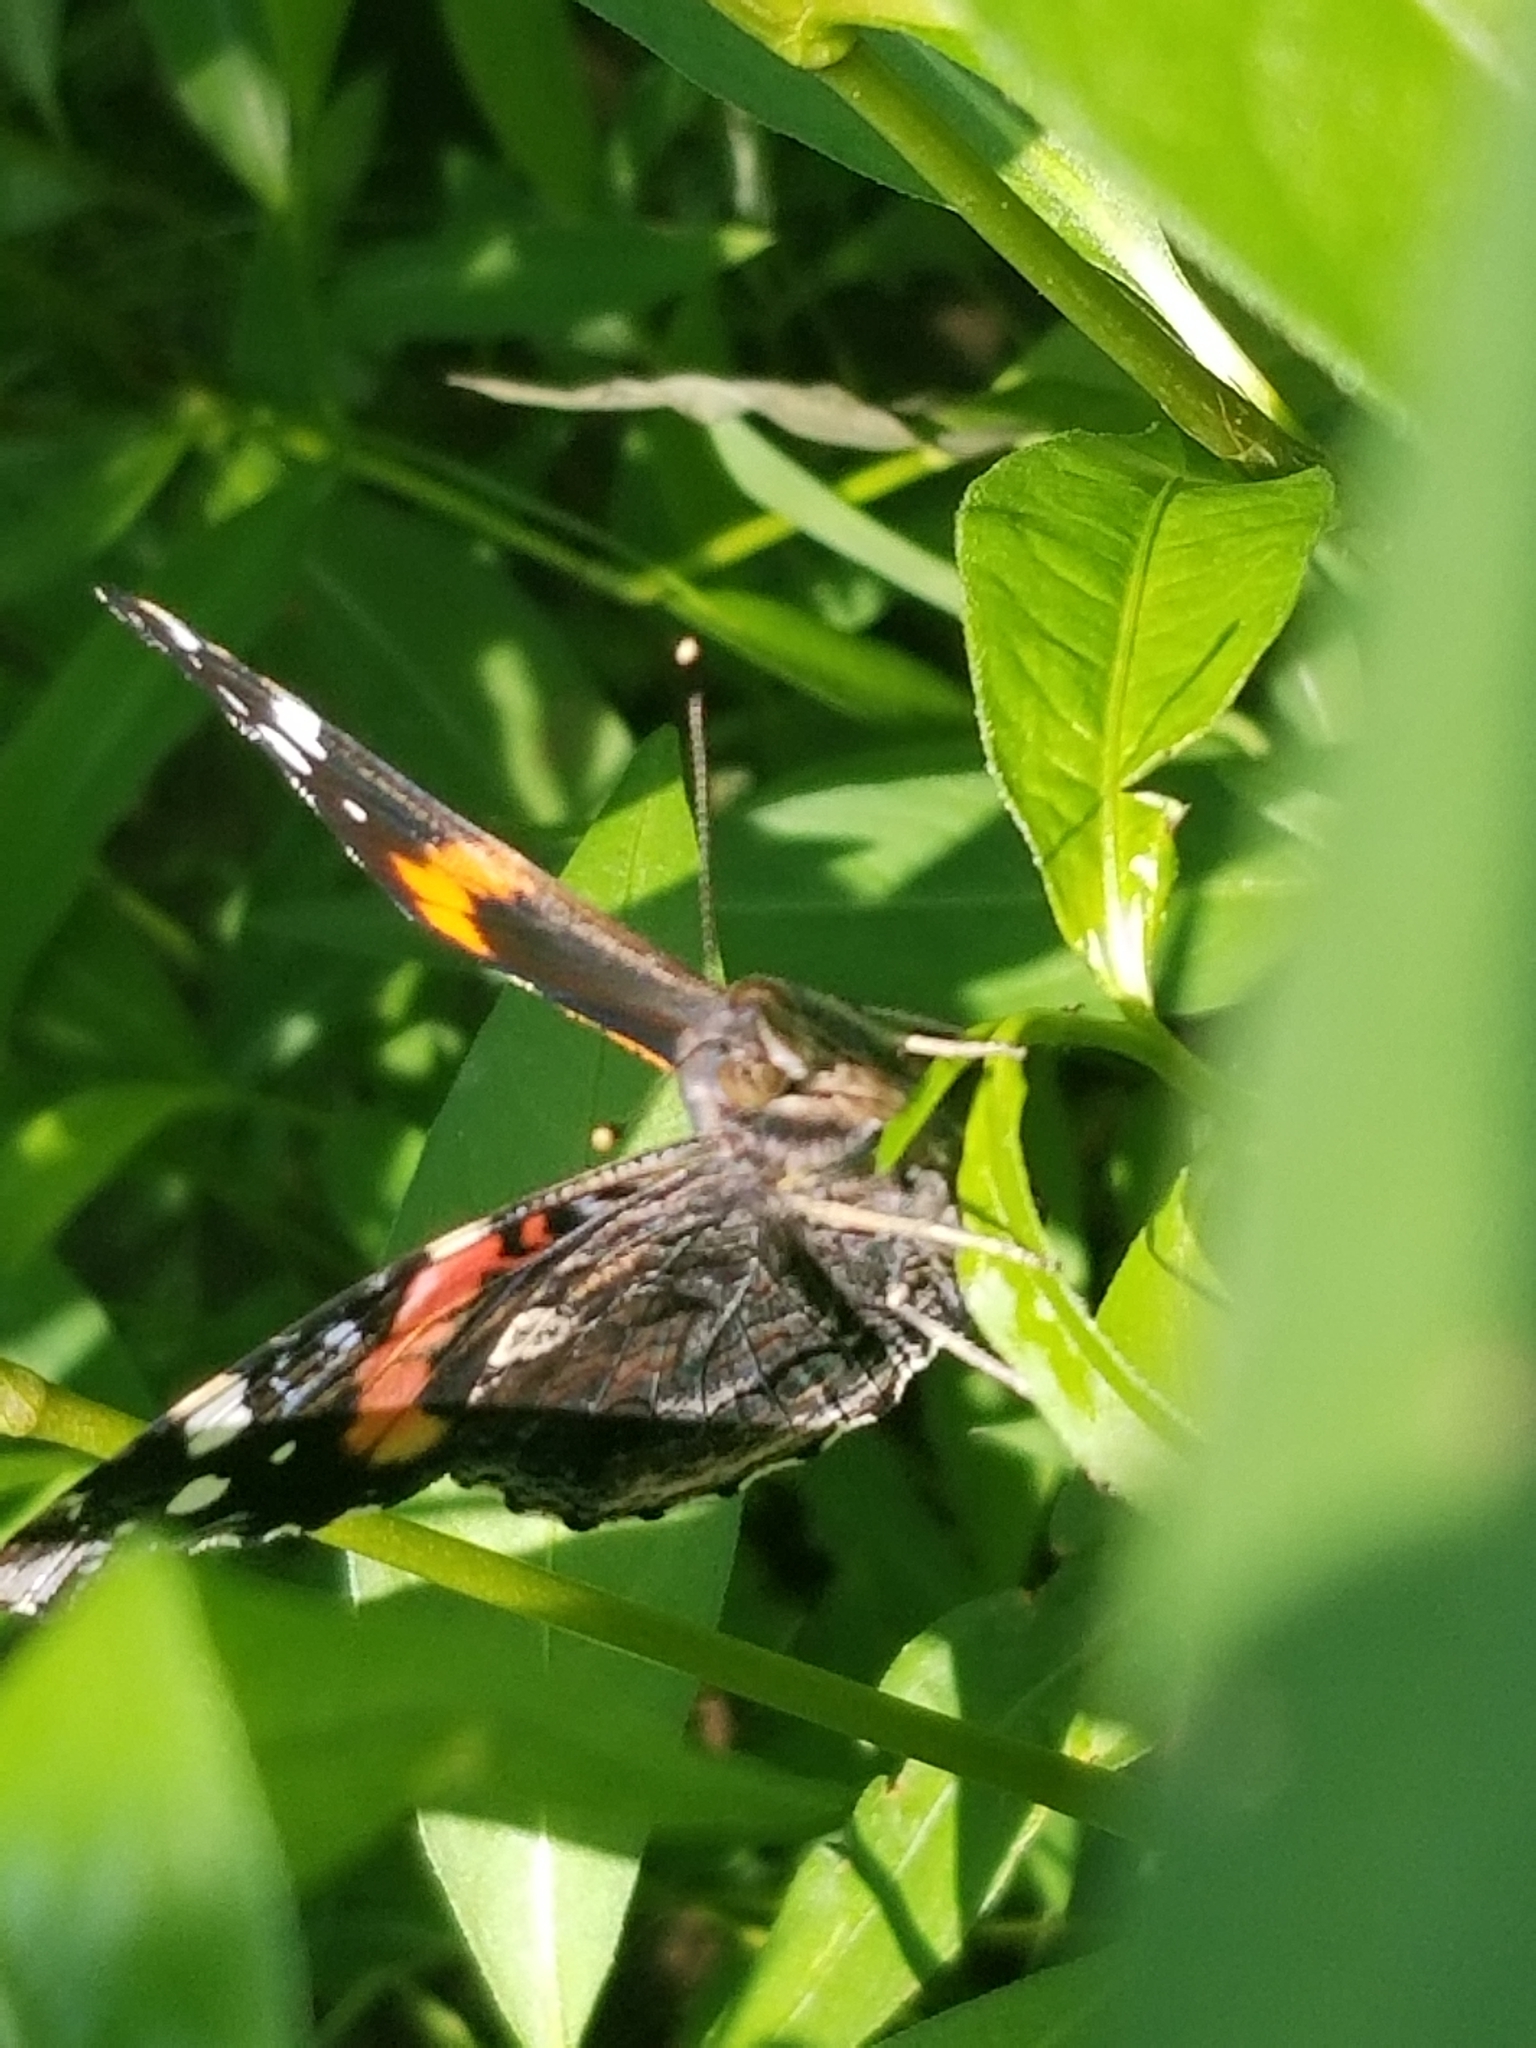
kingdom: Animalia
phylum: Arthropoda
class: Insecta
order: Lepidoptera
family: Nymphalidae
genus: Vanessa
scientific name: Vanessa atalanta
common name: Red admiral
